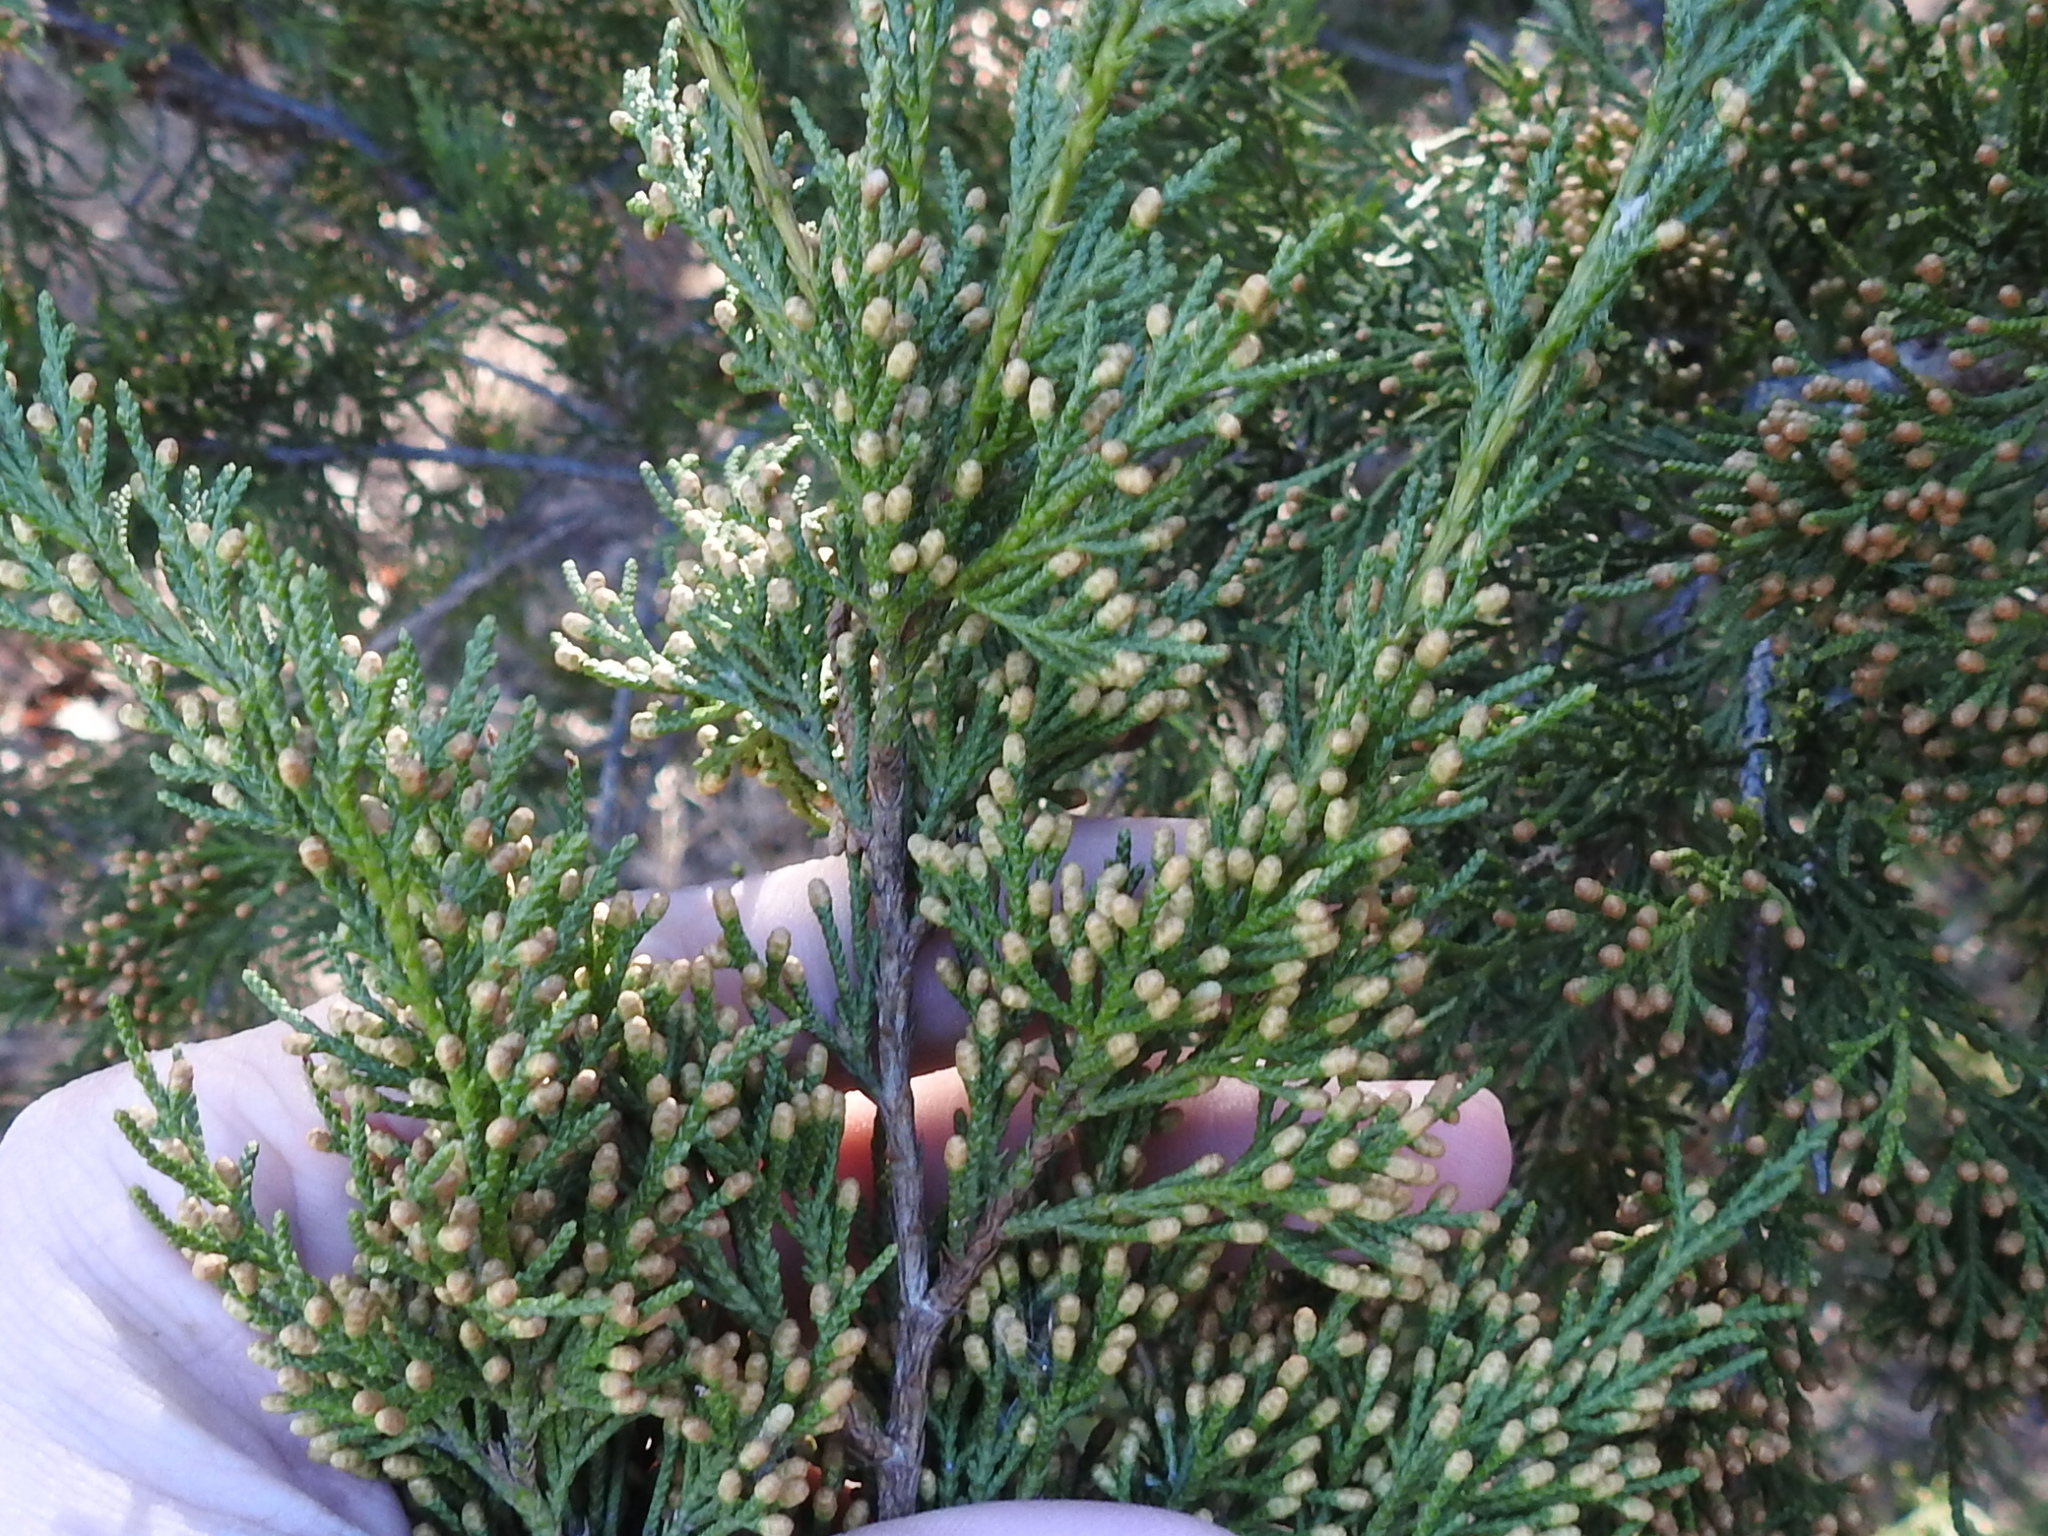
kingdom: Plantae
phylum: Tracheophyta
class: Pinopsida
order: Pinales
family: Cupressaceae
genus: Juniperus
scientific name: Juniperus virginiana
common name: Red juniper
